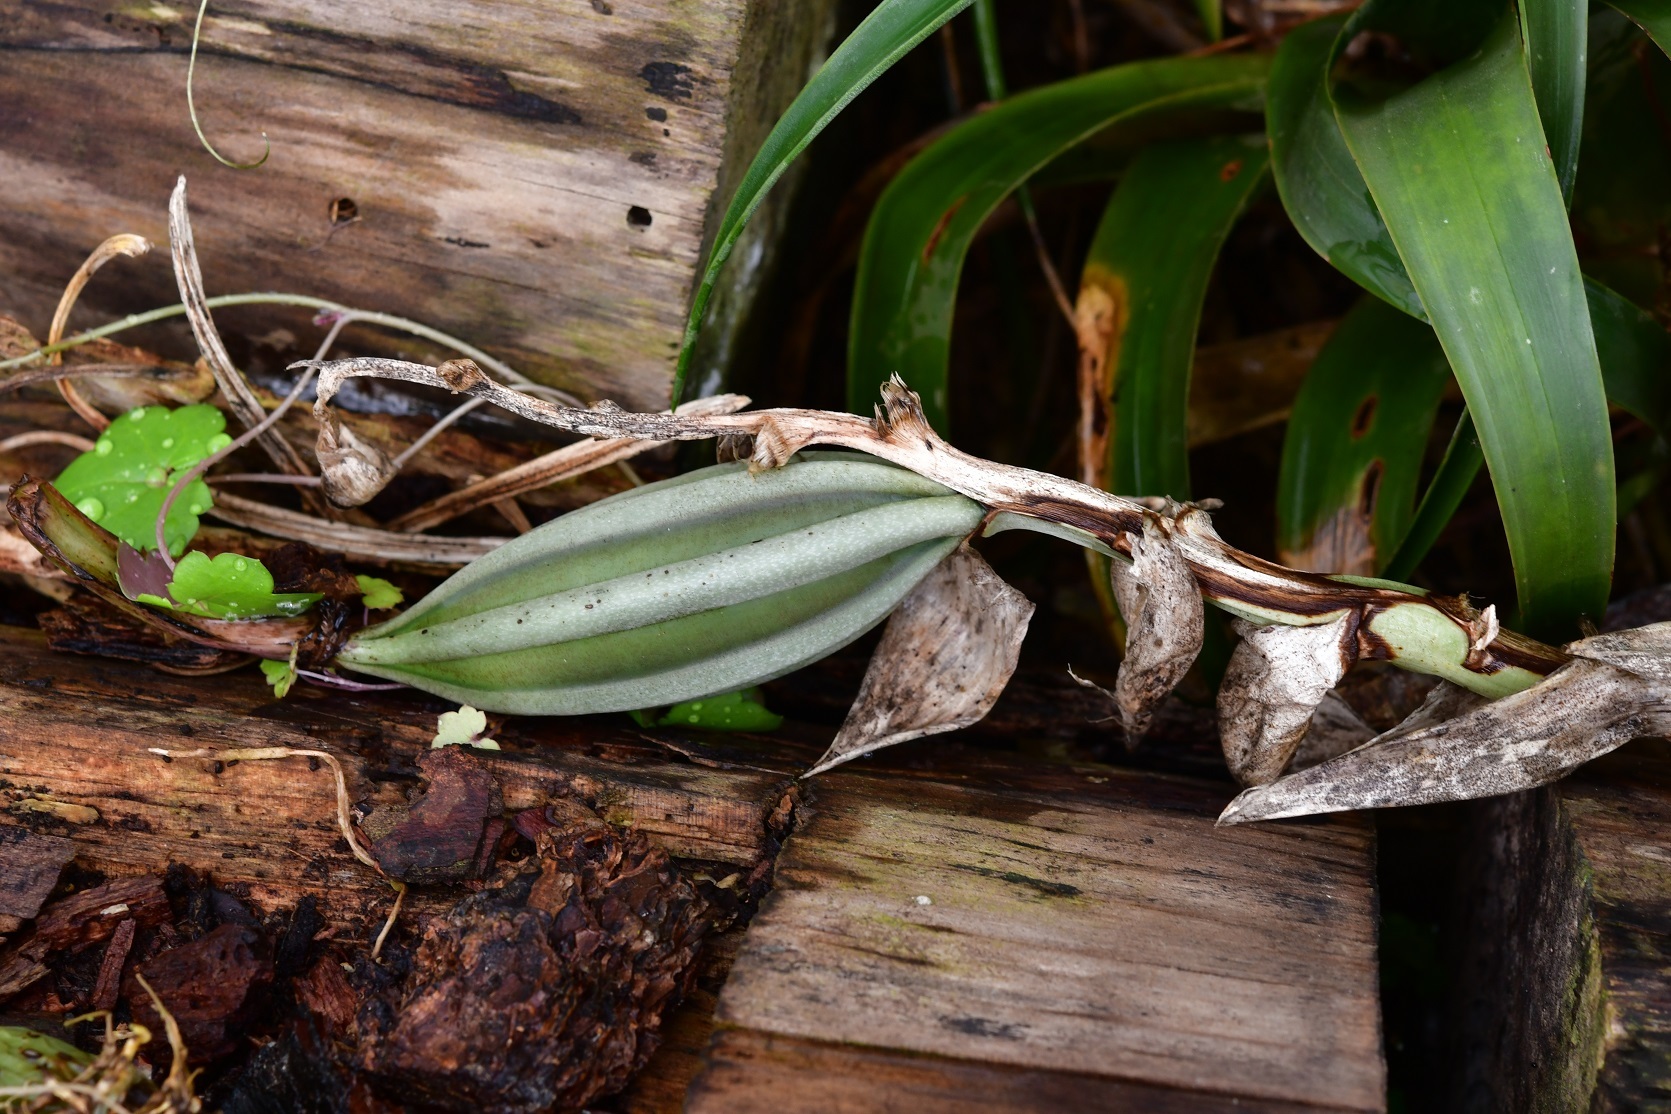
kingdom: Plantae
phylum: Tracheophyta
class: Liliopsida
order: Asparagales
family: Orchidaceae
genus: Stanhopea
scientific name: Stanhopea graveolens
